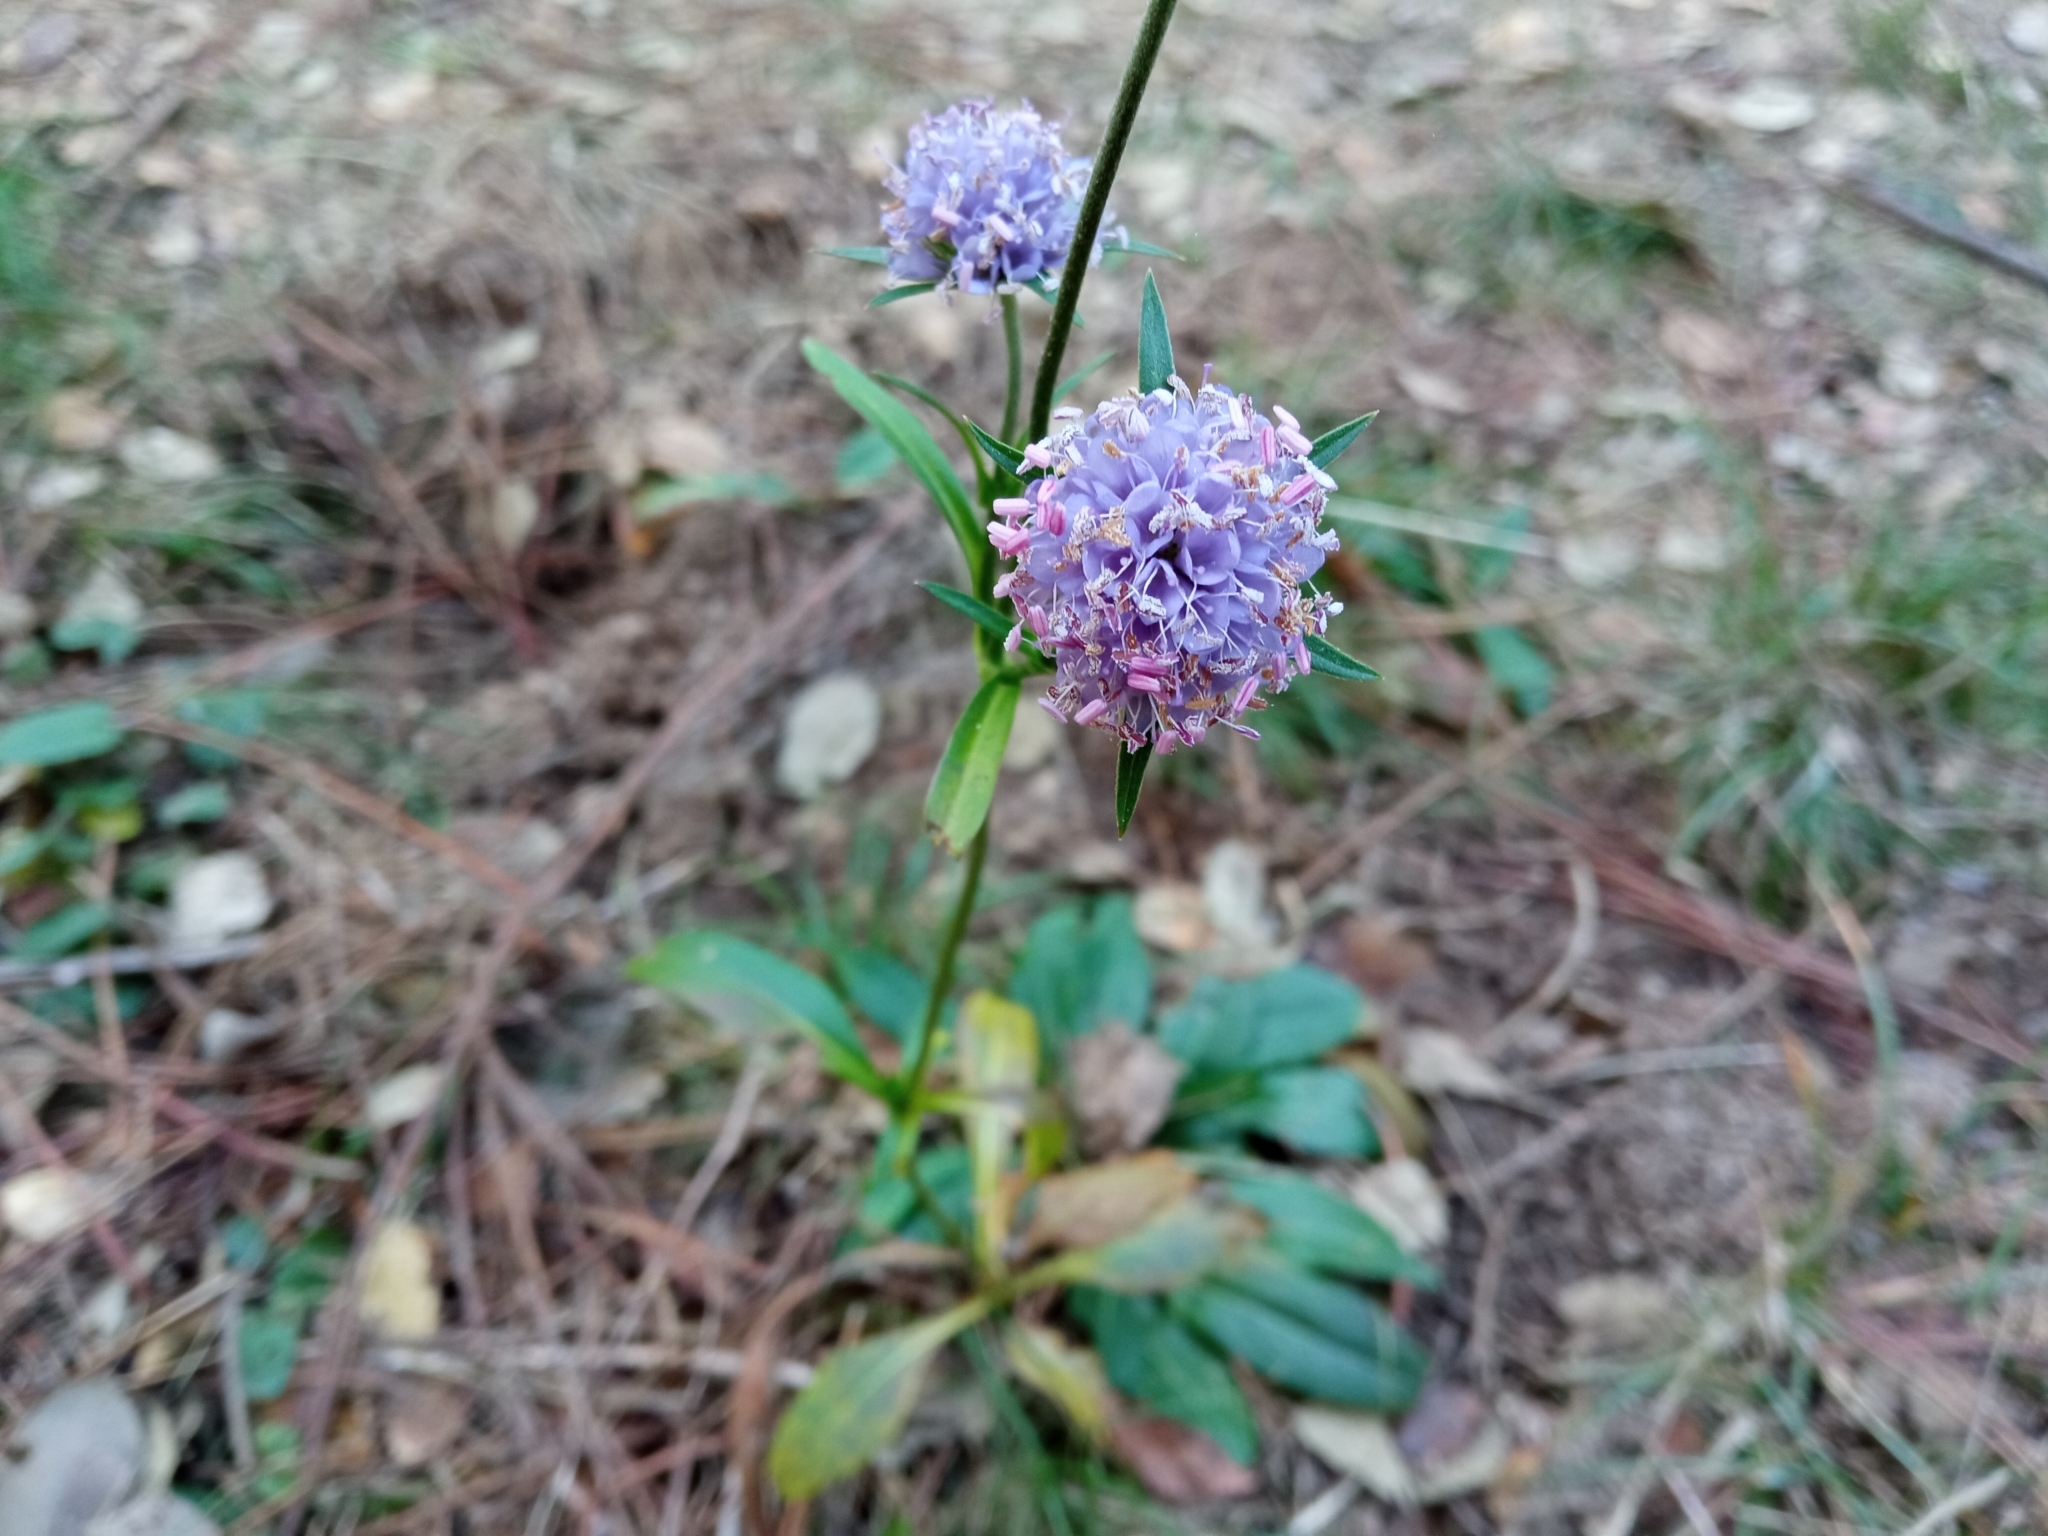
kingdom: Plantae
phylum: Tracheophyta
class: Magnoliopsida
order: Dipsacales
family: Caprifoliaceae
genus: Succisa
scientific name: Succisa pratensis
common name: Devil's-bit
